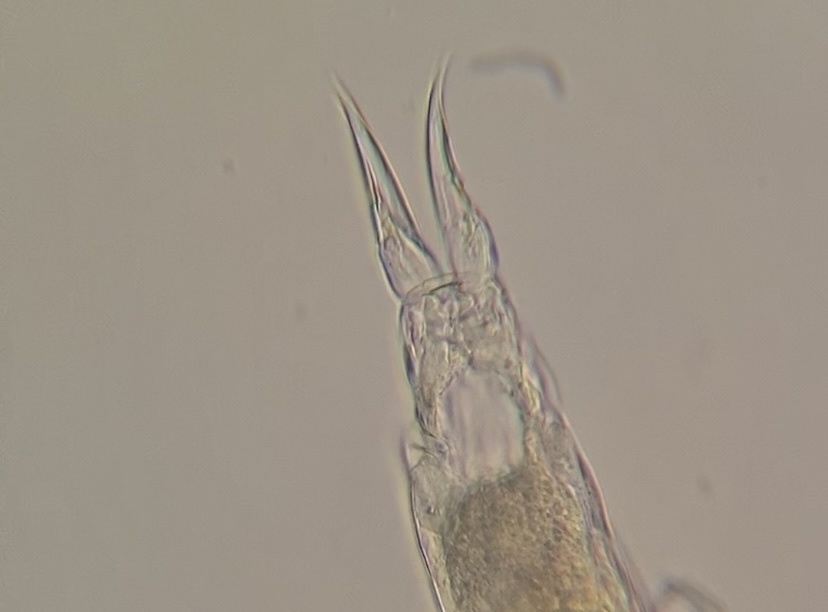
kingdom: Animalia
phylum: Rotifera
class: Eurotatoria
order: Ploima
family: Notommatidae
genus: Cephalodella
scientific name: Cephalodella forficula
